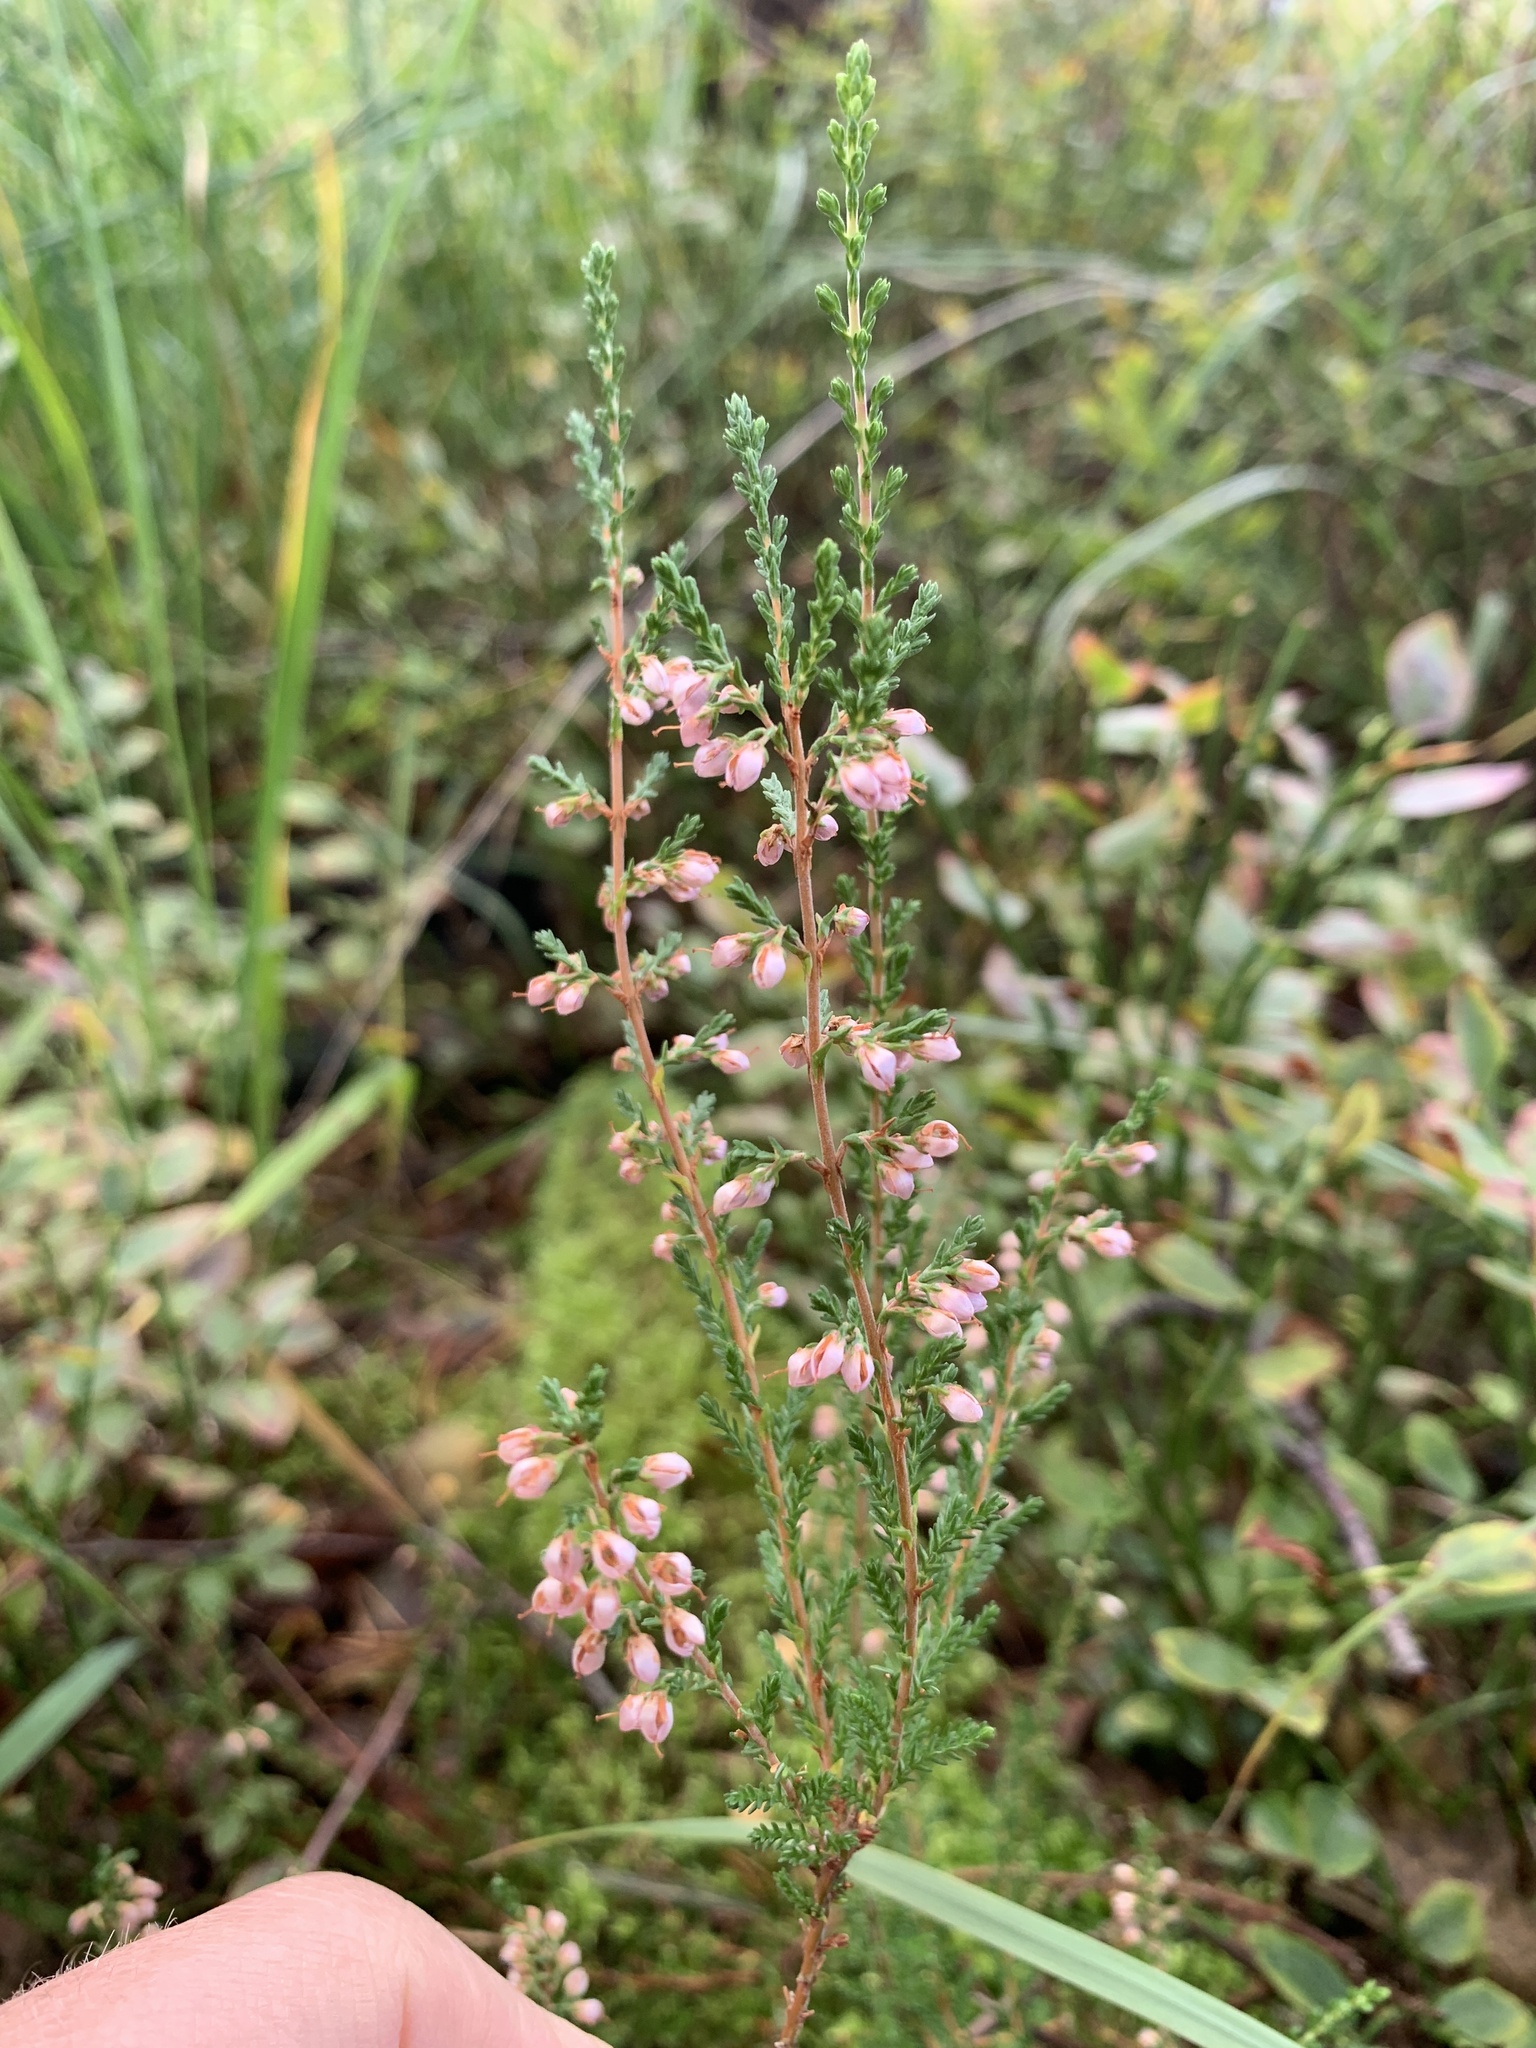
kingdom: Plantae
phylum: Tracheophyta
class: Magnoliopsida
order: Ericales
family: Ericaceae
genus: Calluna
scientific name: Calluna vulgaris
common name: Heather
